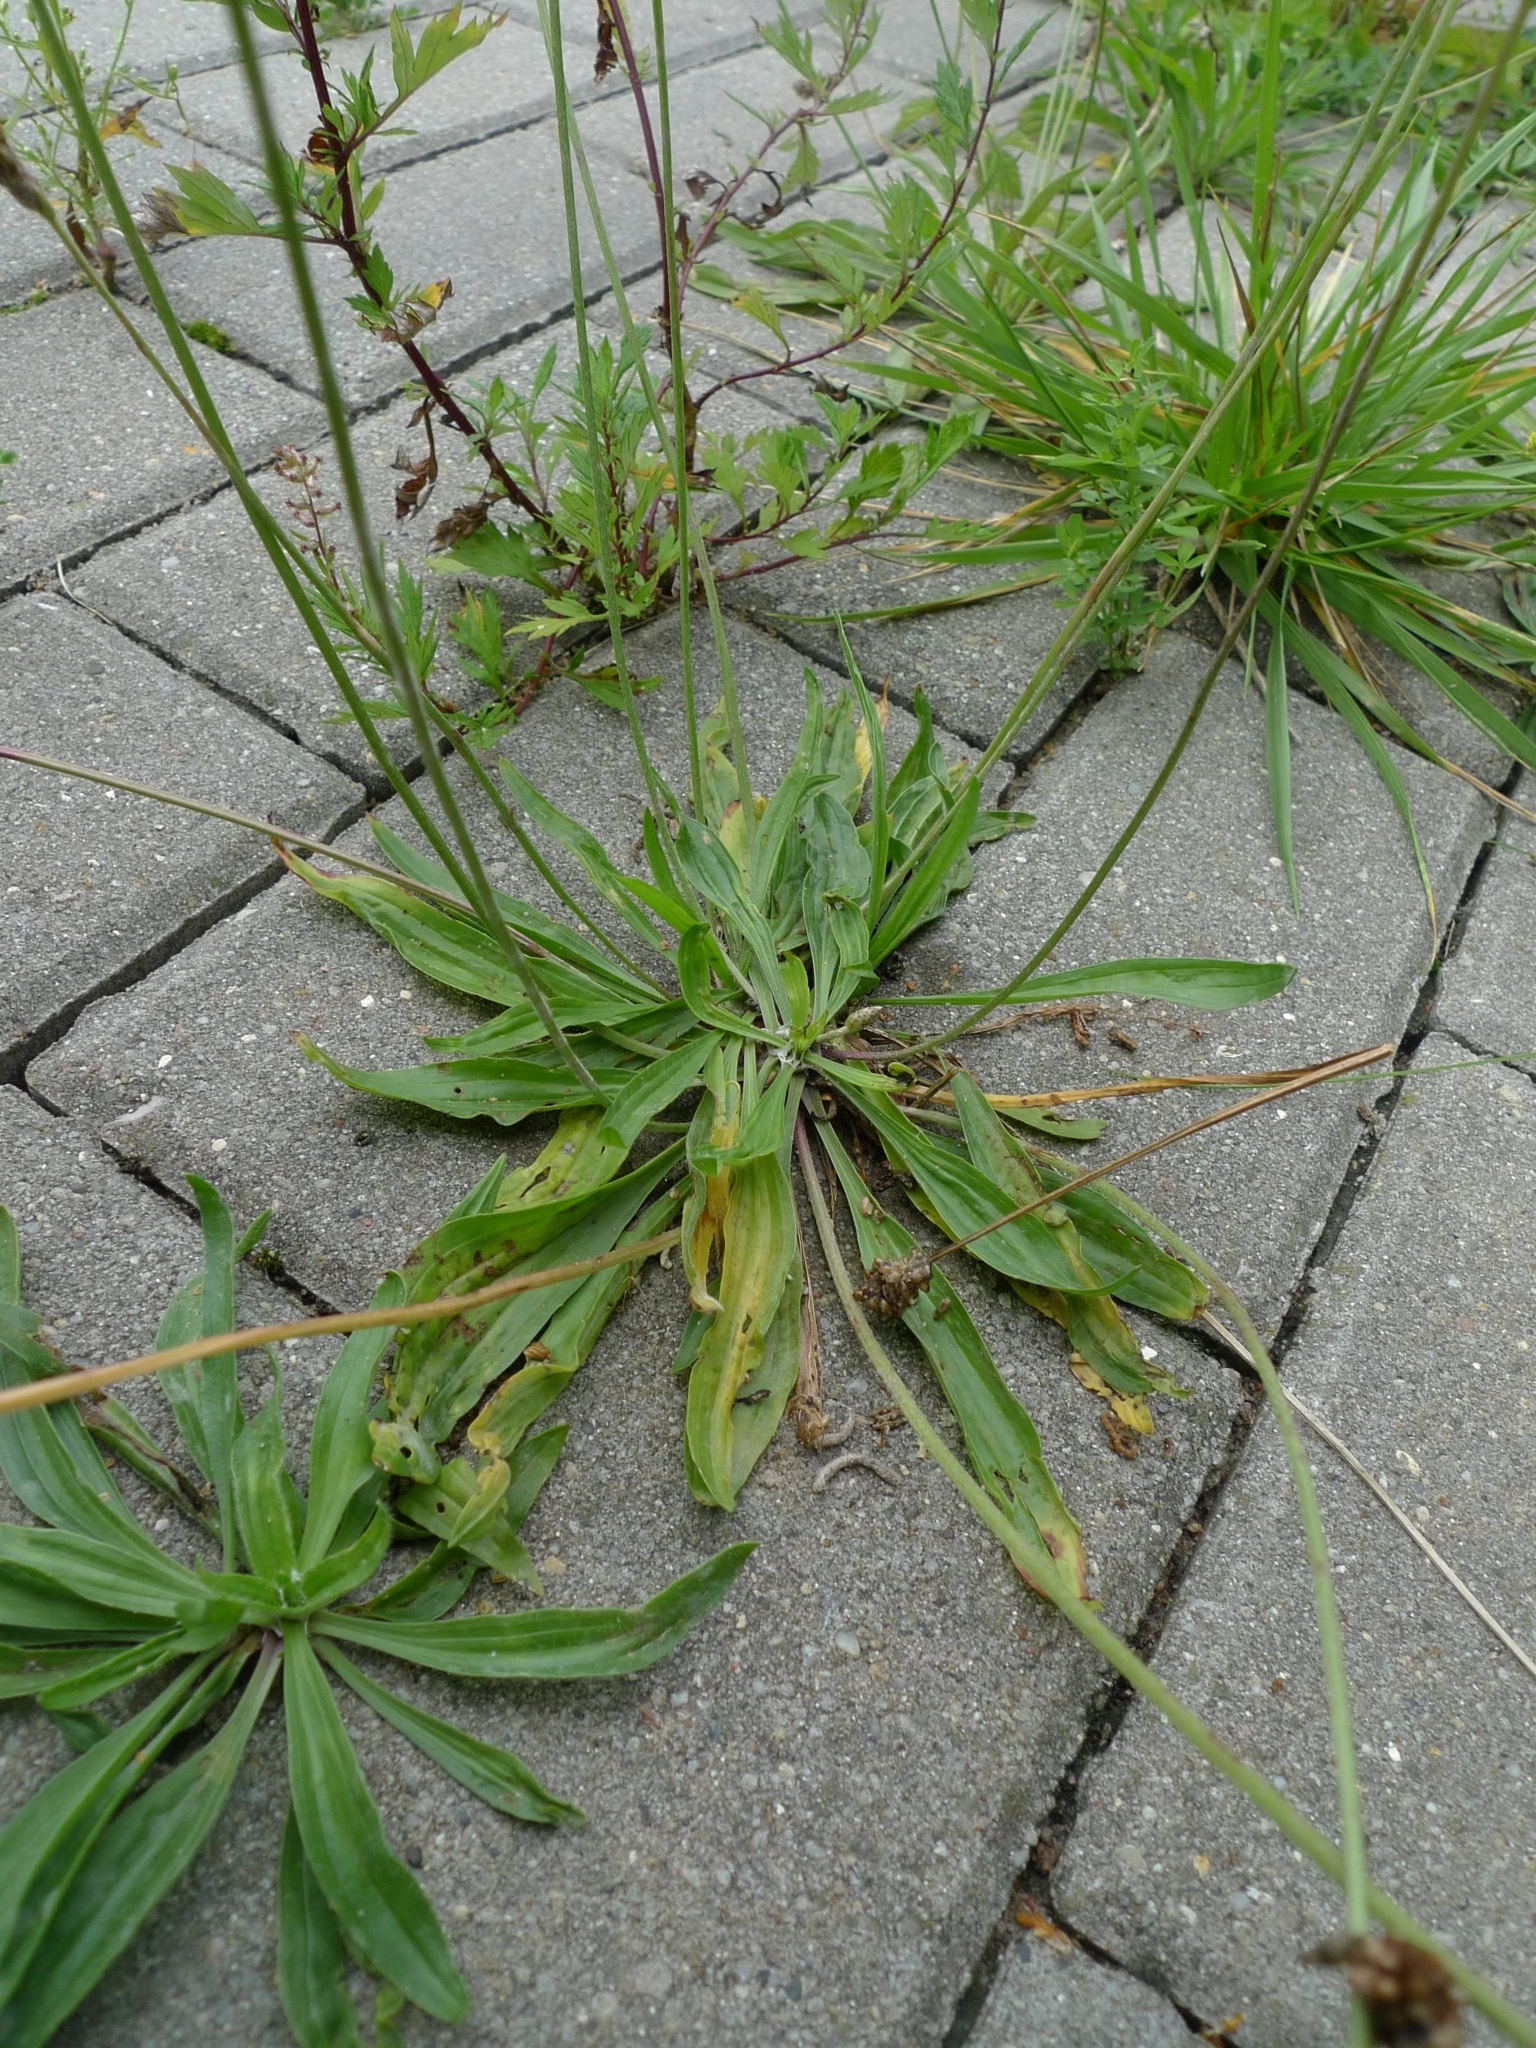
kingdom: Plantae
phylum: Tracheophyta
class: Magnoliopsida
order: Lamiales
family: Plantaginaceae
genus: Plantago
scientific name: Plantago lanceolata
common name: Ribwort plantain
